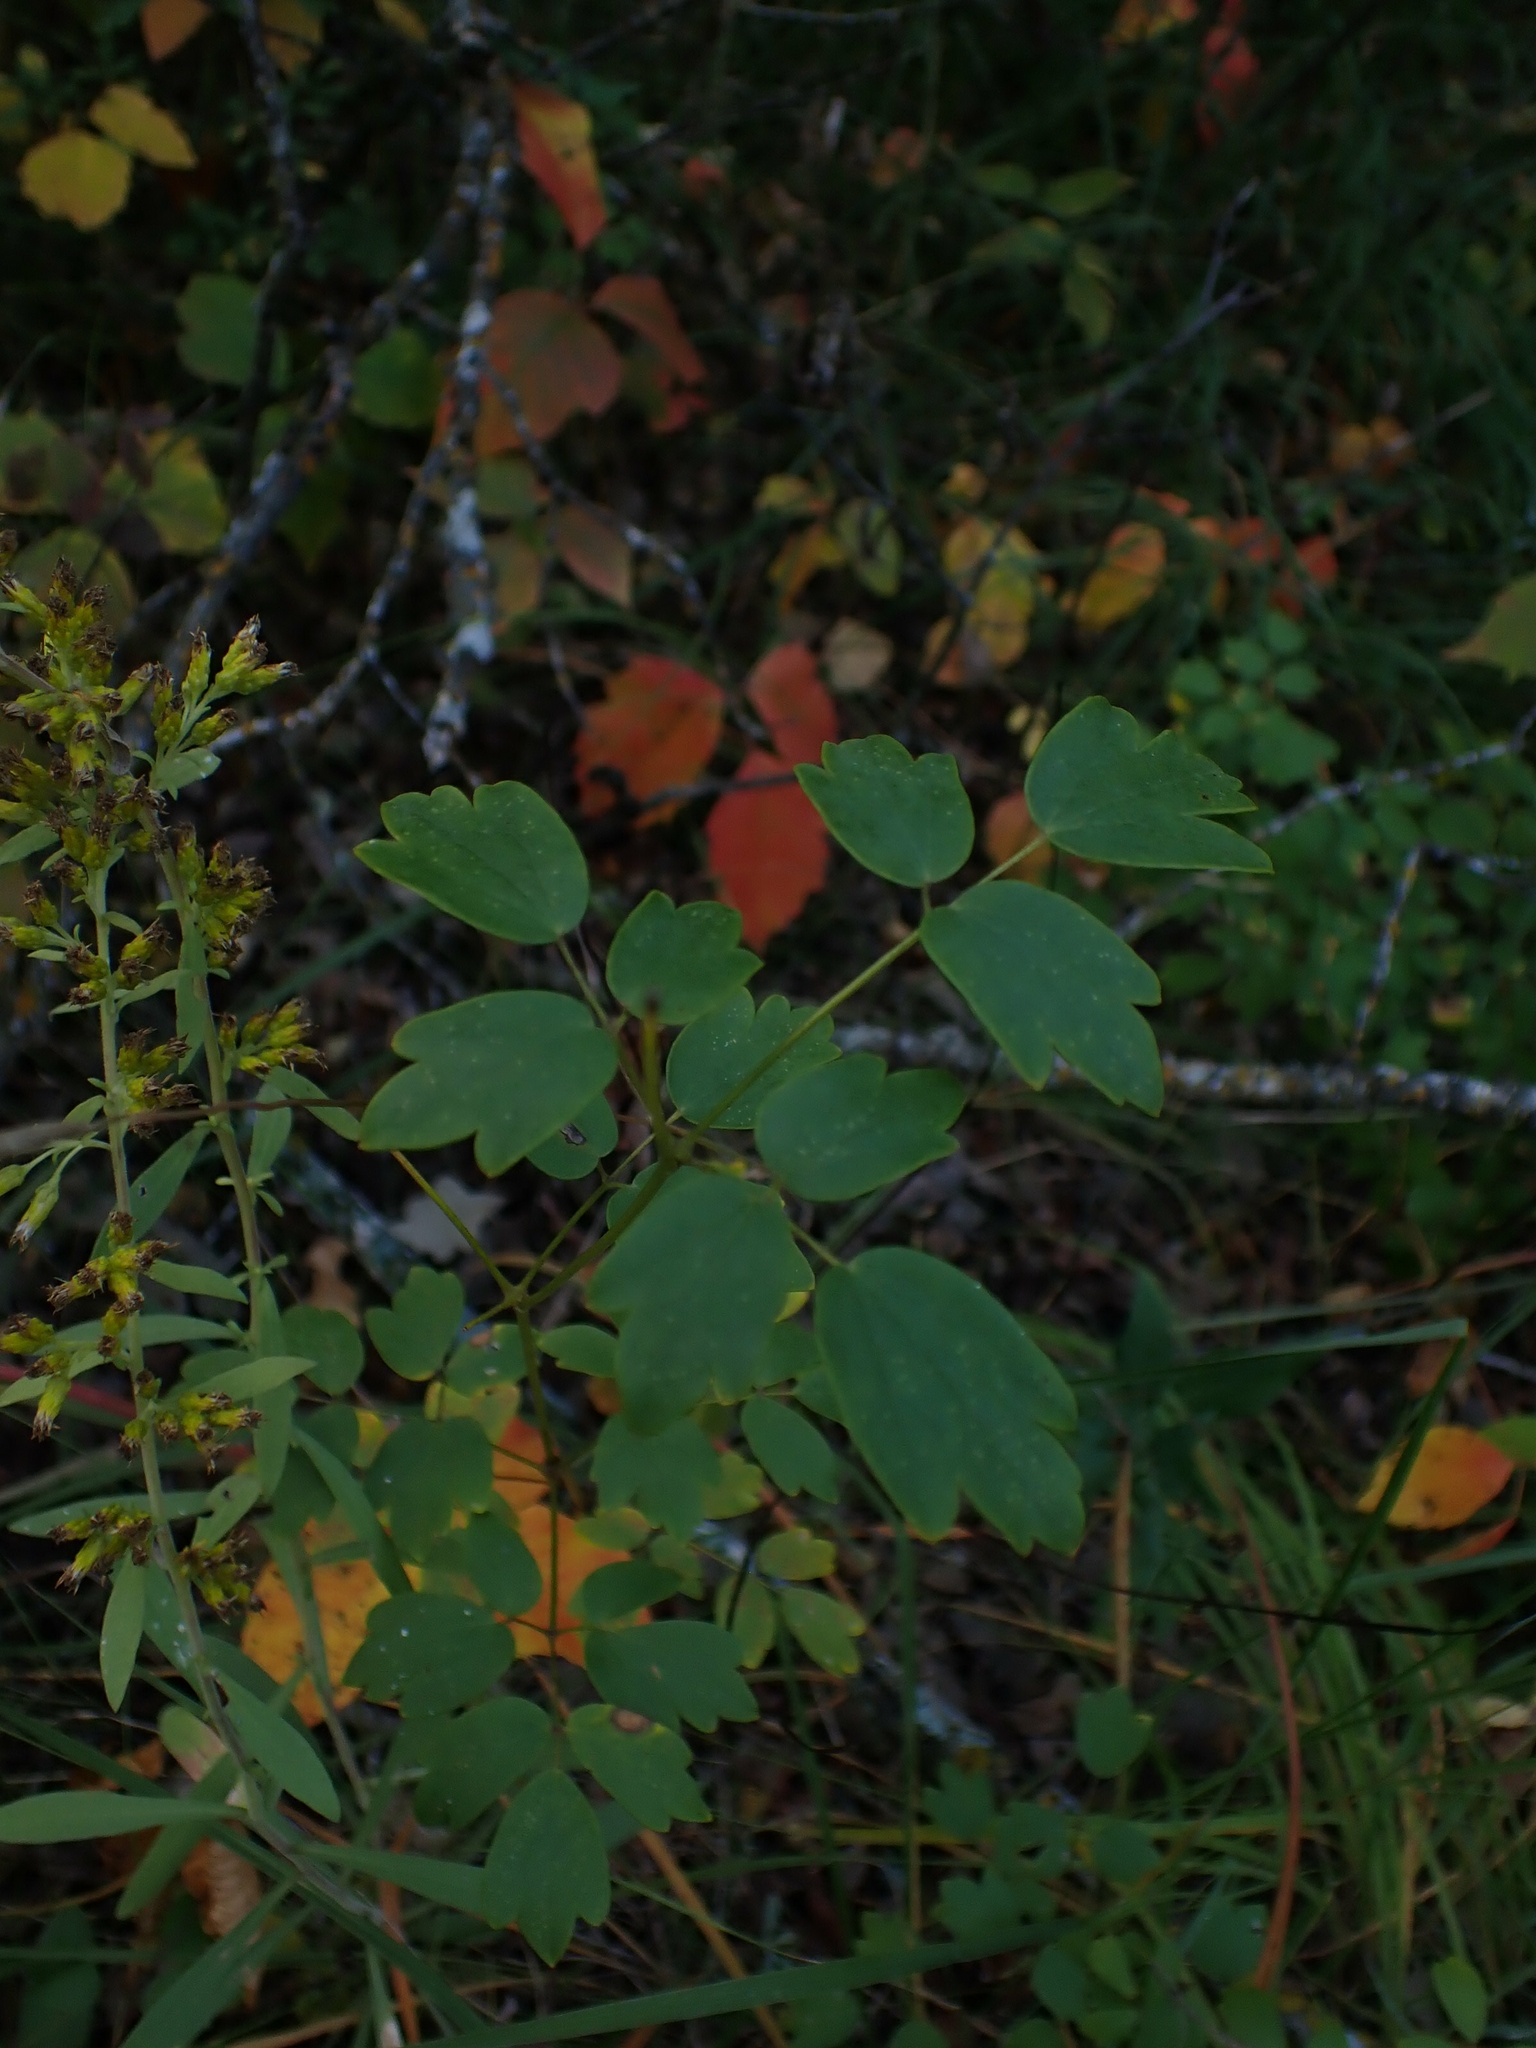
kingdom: Plantae
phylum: Tracheophyta
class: Magnoliopsida
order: Ranunculales
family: Ranunculaceae
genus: Thalictrum
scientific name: Thalictrum dasycarpum
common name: Purple meadow-rue
